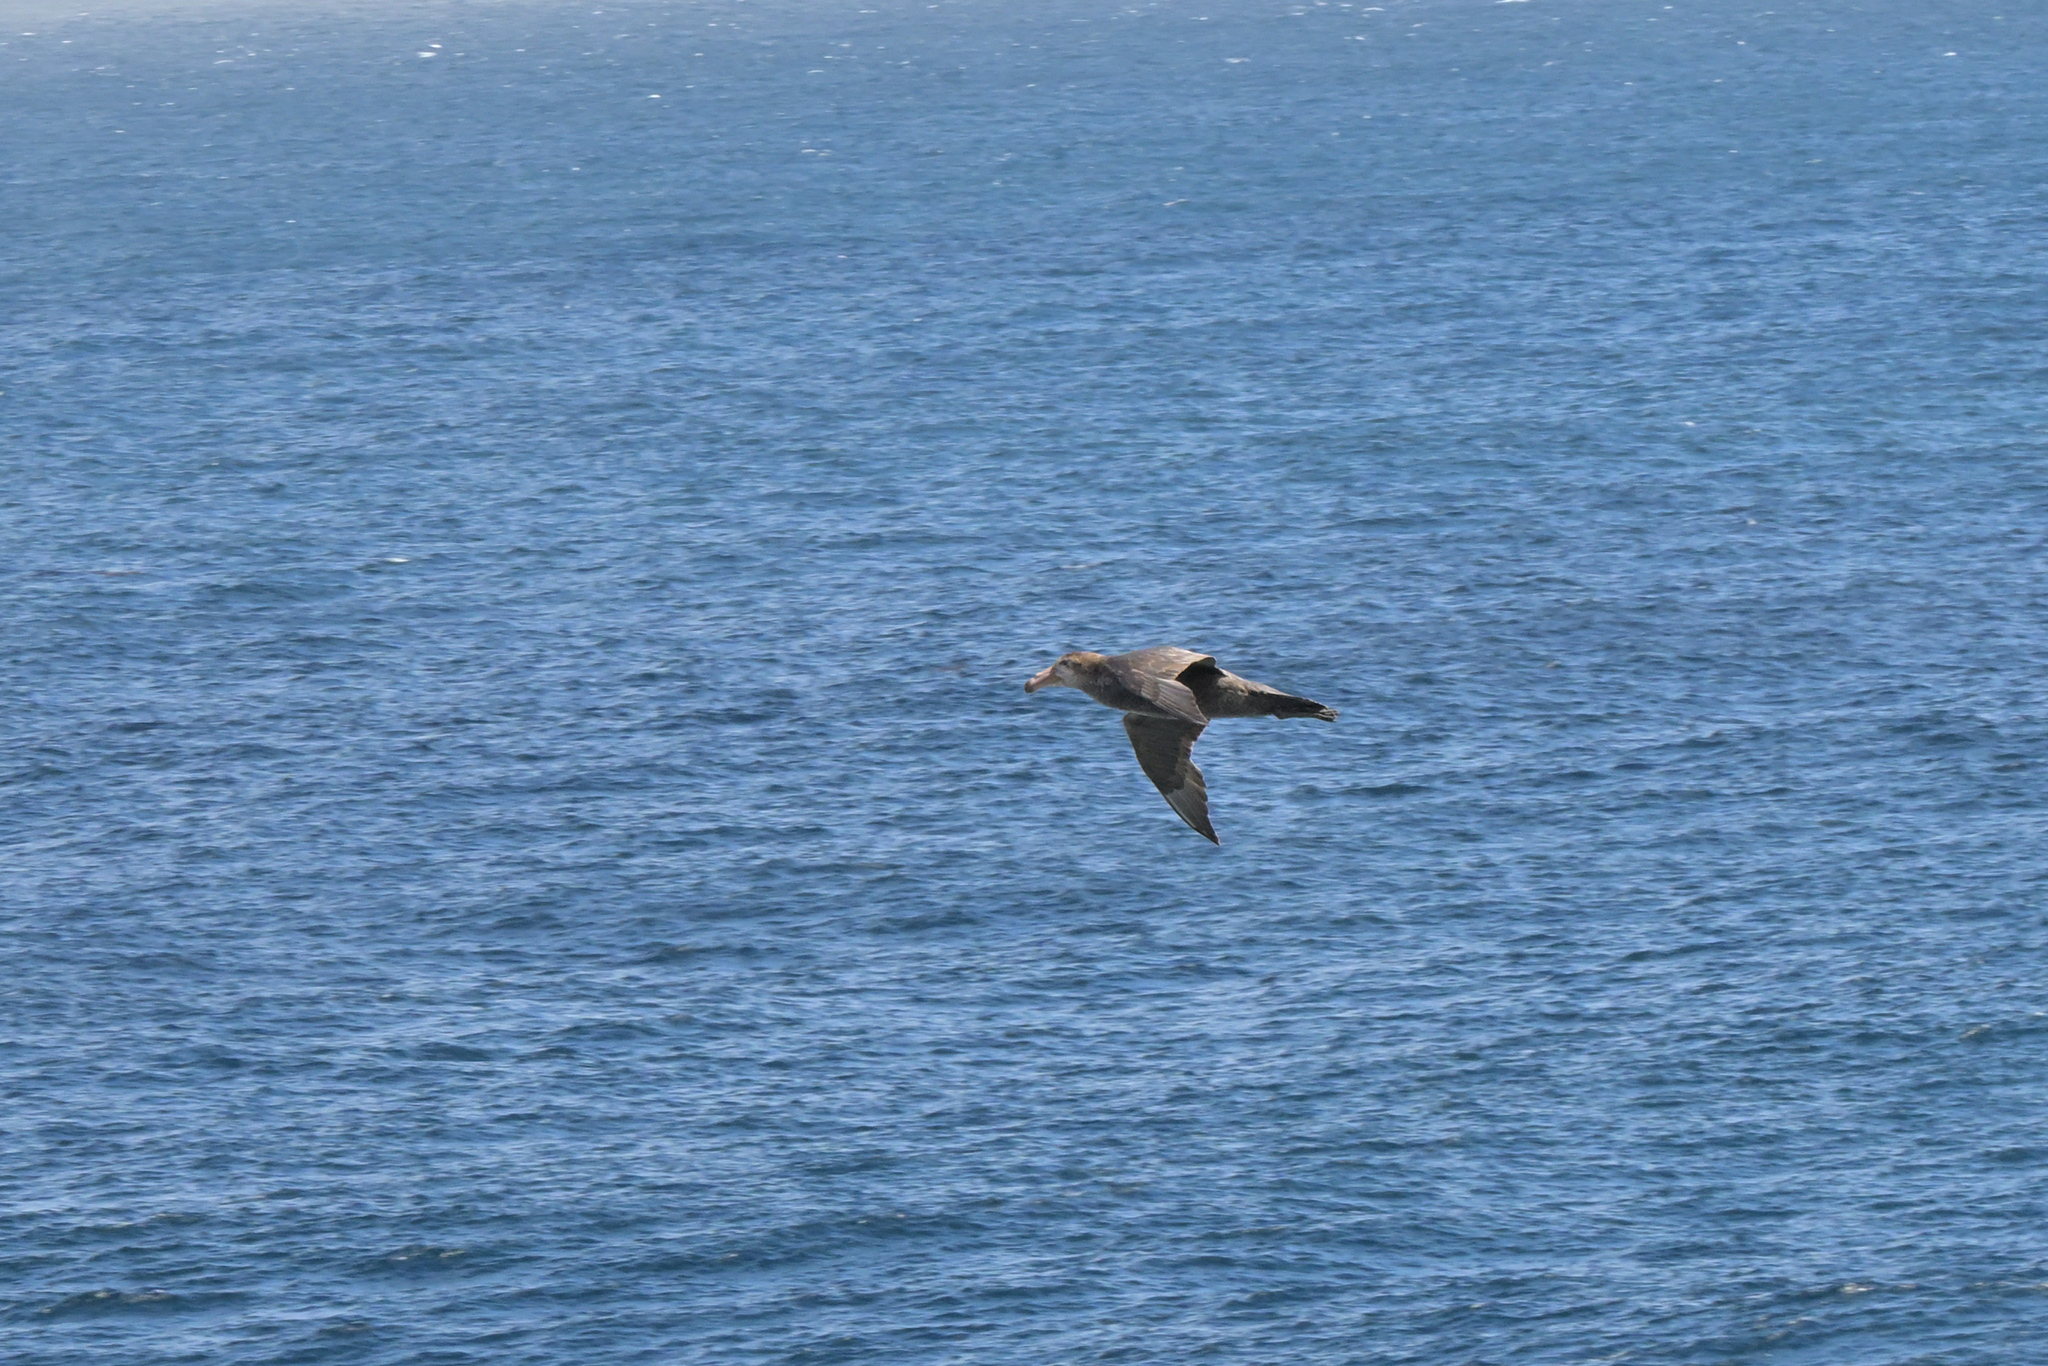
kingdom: Animalia
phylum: Chordata
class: Aves
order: Procellariiformes
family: Procellariidae
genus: Macronectes
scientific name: Macronectes halli
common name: Northern giant petrel
